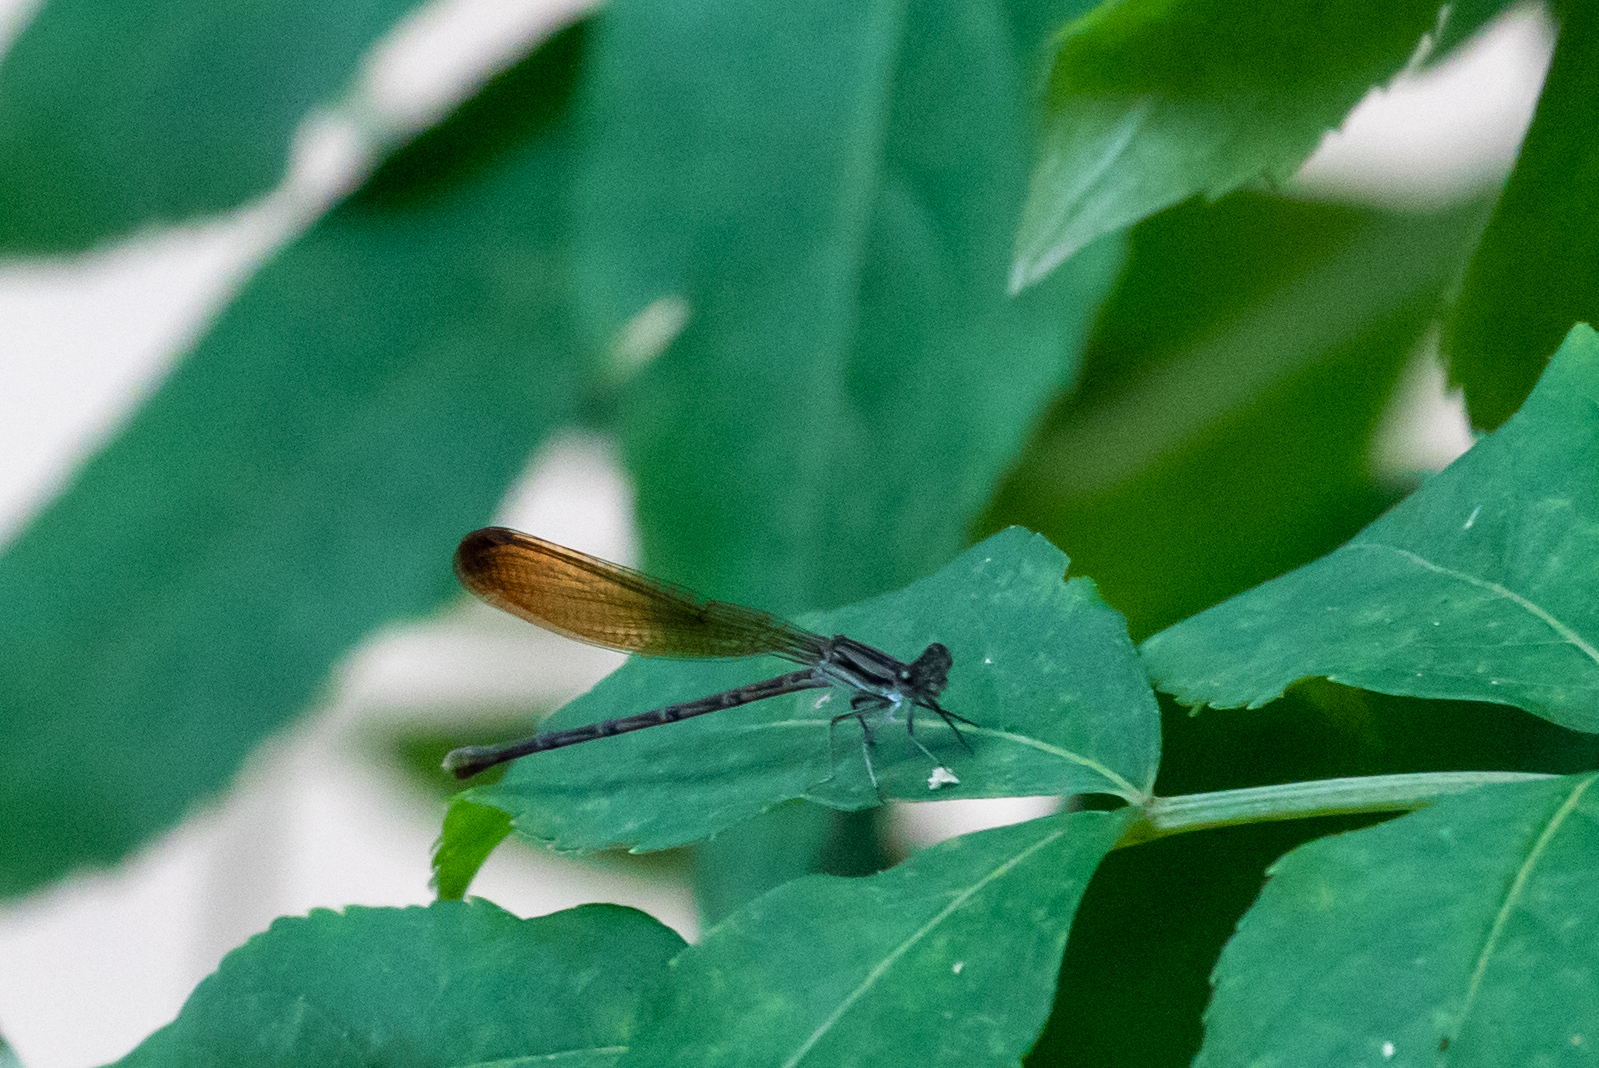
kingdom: Animalia
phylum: Arthropoda
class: Insecta
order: Odonata
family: Coenagrionidae
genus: Argia
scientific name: Argia fumipennis
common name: Variable dancer
